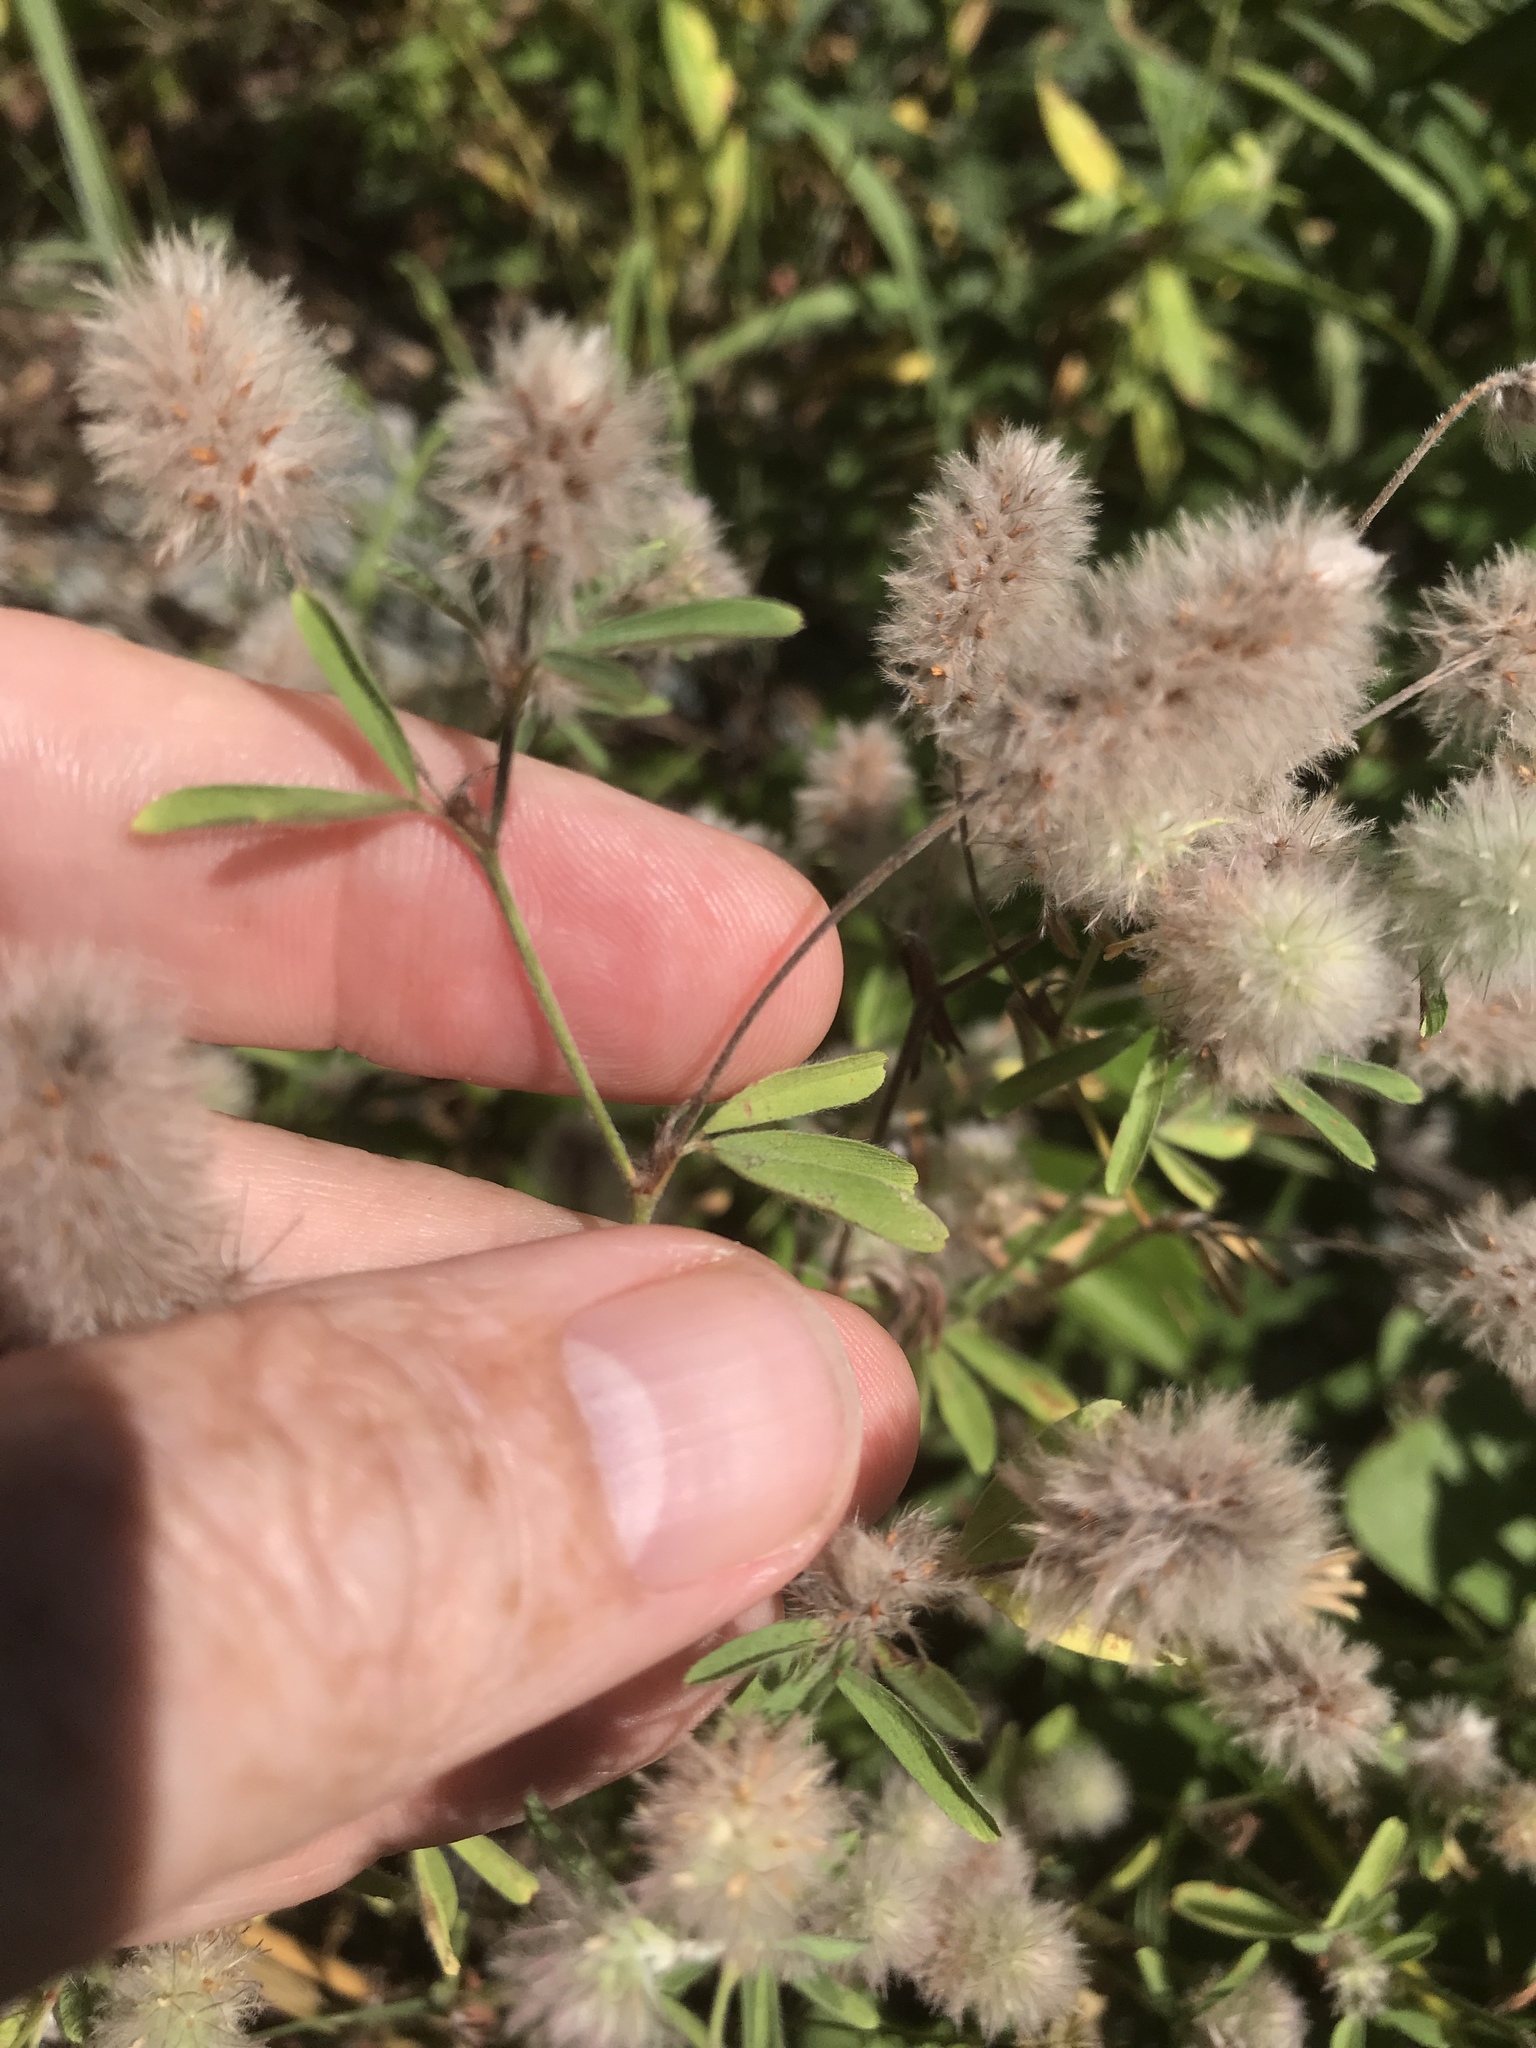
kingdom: Plantae
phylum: Tracheophyta
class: Magnoliopsida
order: Fabales
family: Fabaceae
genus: Trifolium
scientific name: Trifolium arvense
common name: Hare's-foot clover
